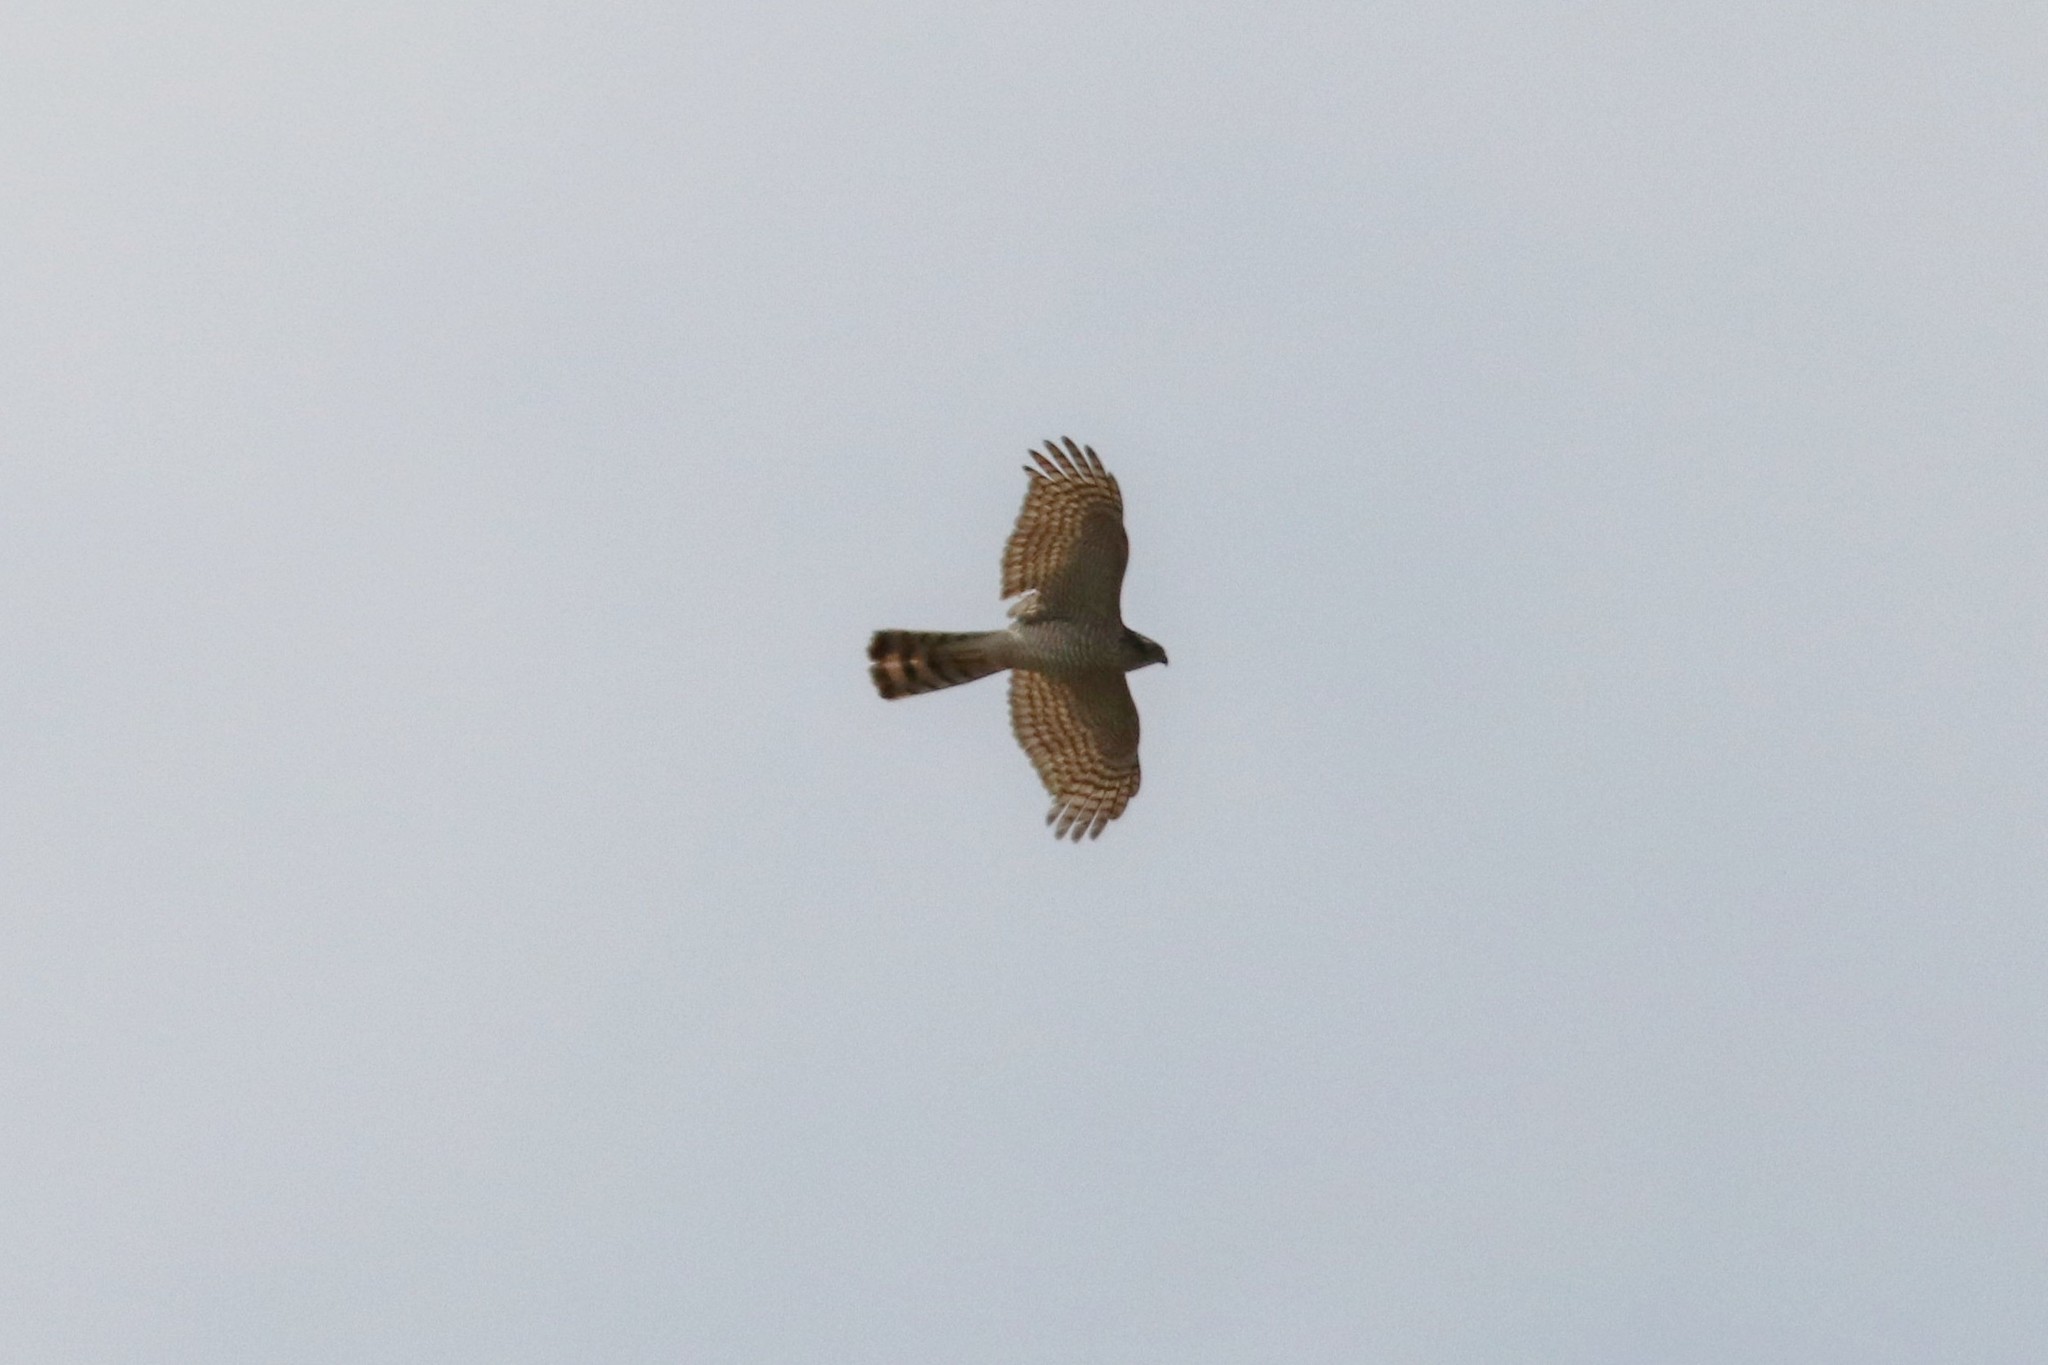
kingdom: Animalia
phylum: Chordata
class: Aves
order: Accipitriformes
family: Accipitridae
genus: Accipiter
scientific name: Accipiter nisus
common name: Eurasian sparrowhawk
